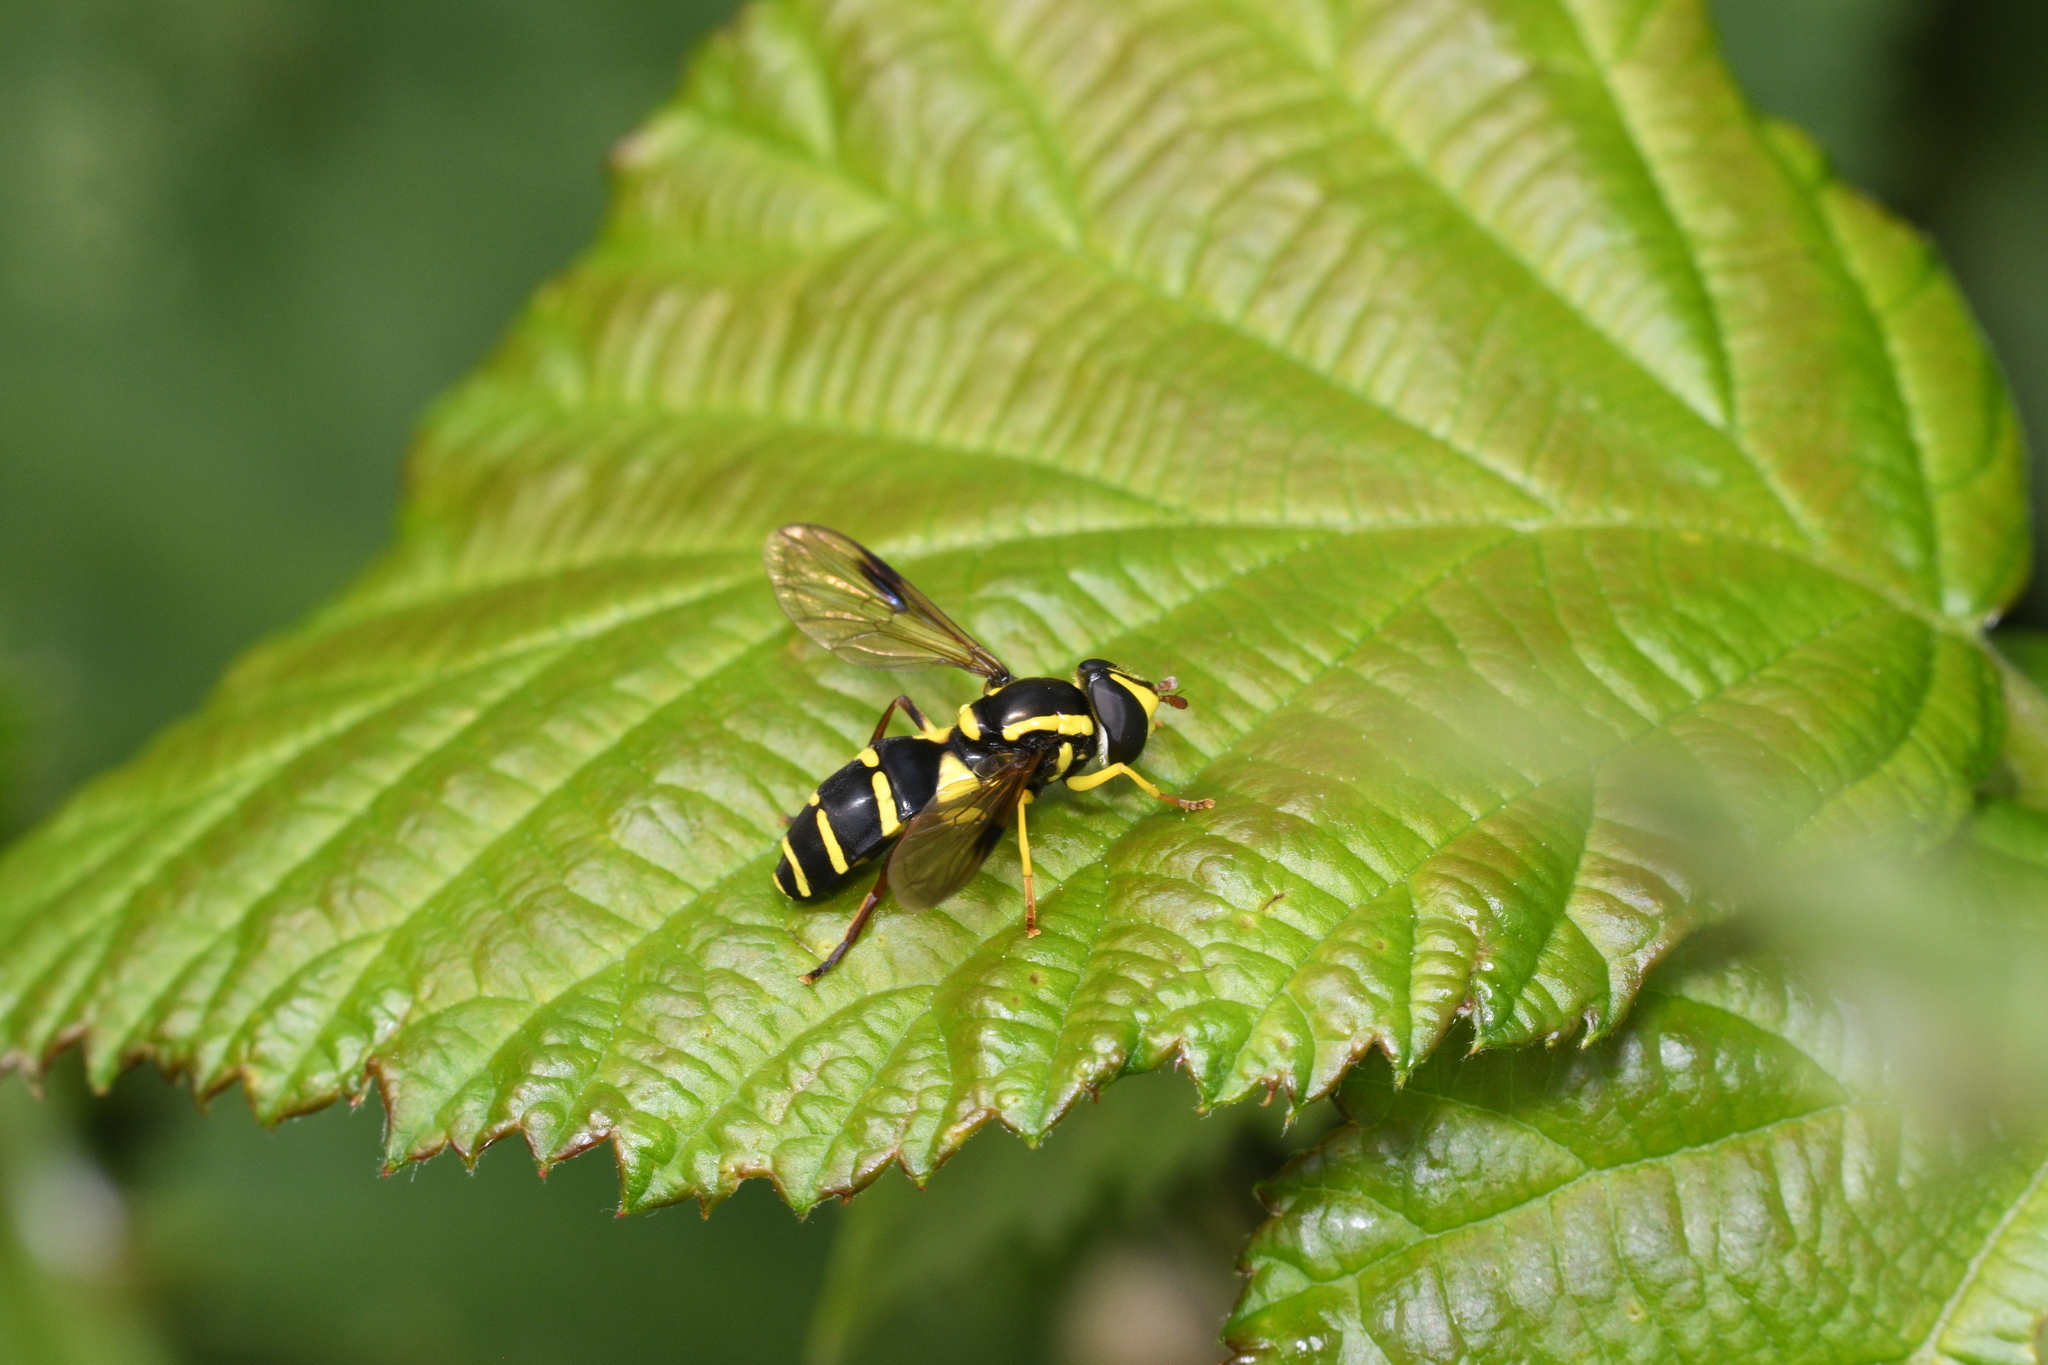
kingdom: Animalia
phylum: Arthropoda
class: Insecta
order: Diptera
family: Syrphidae
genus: Philhelius
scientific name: Philhelius pedissequum
